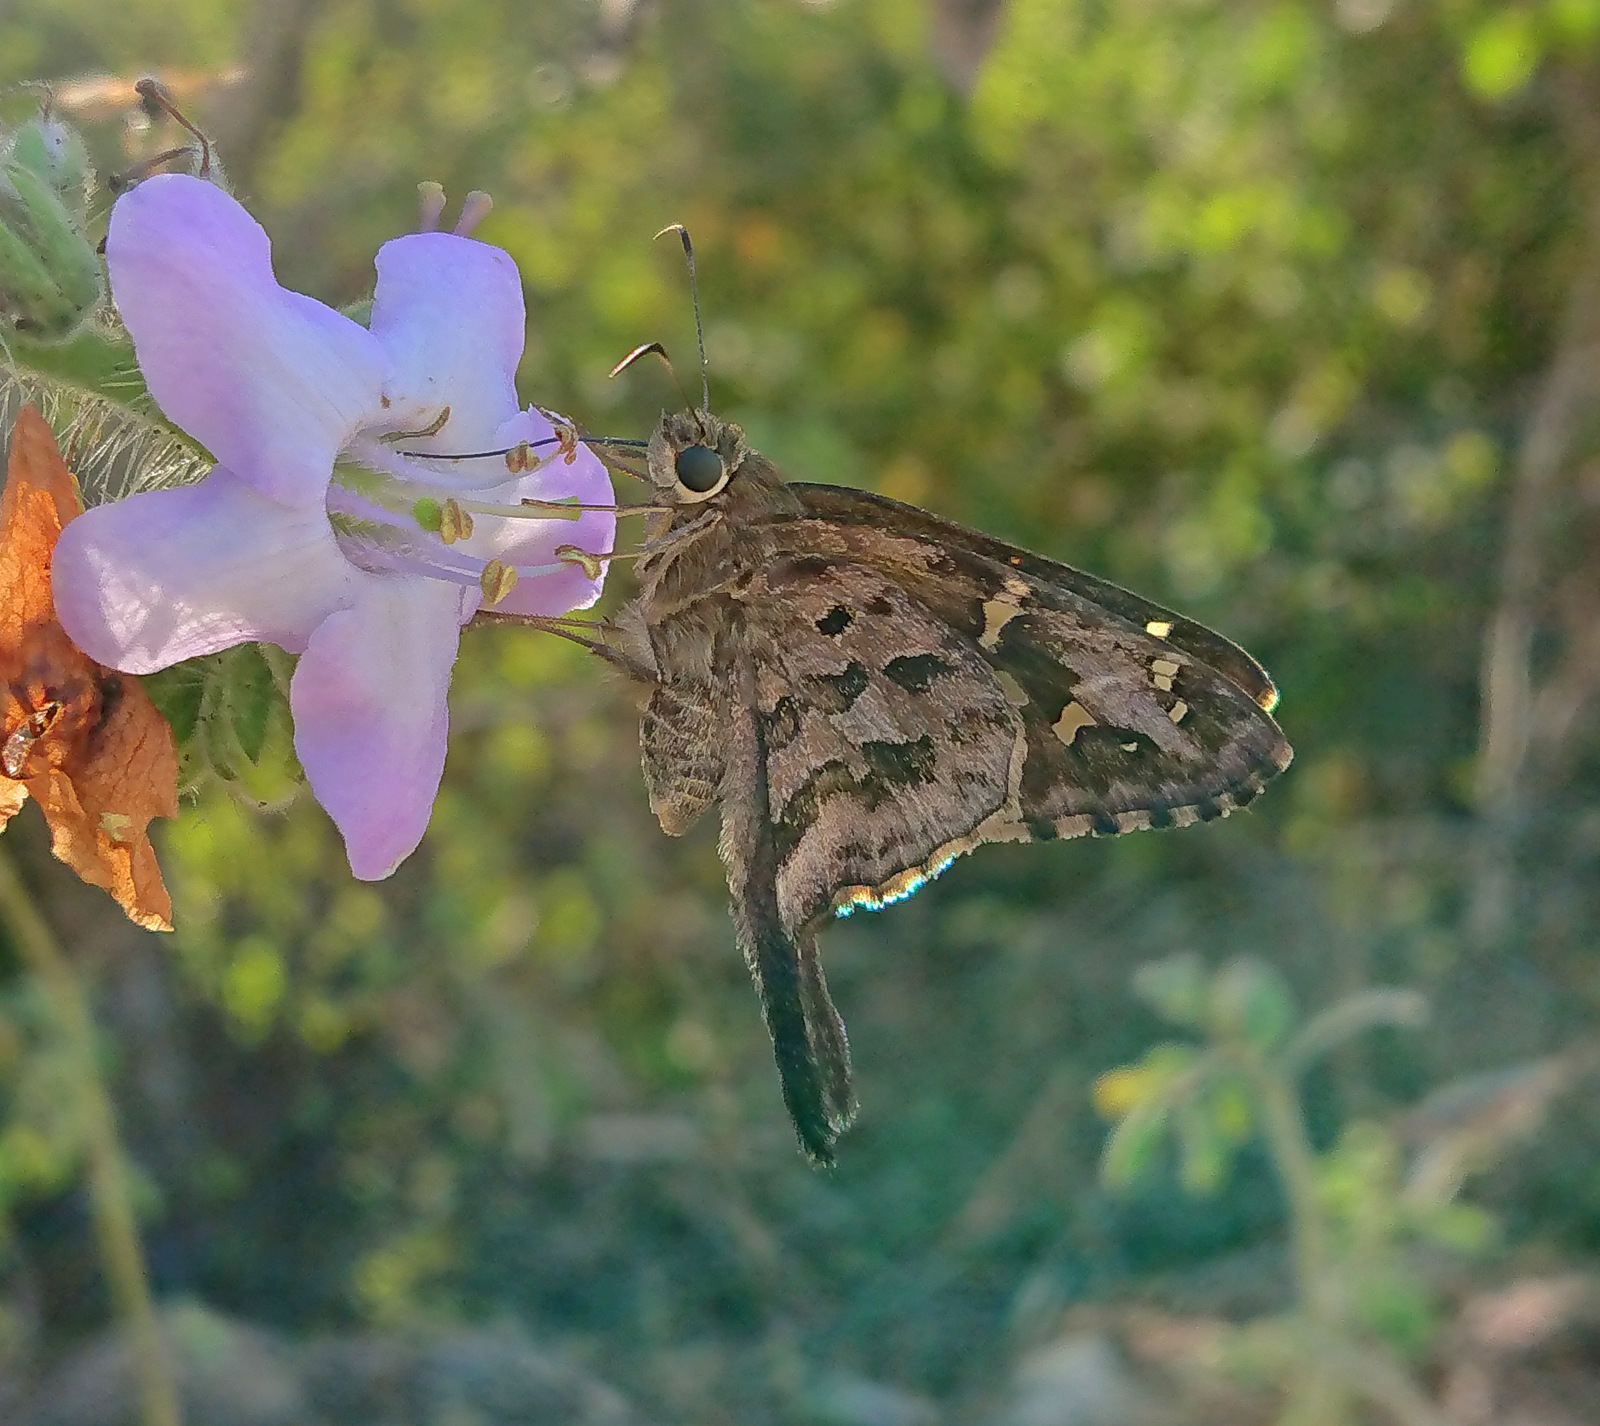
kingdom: Animalia
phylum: Arthropoda
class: Insecta
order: Lepidoptera
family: Hesperiidae
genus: Thorybes
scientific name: Thorybes
